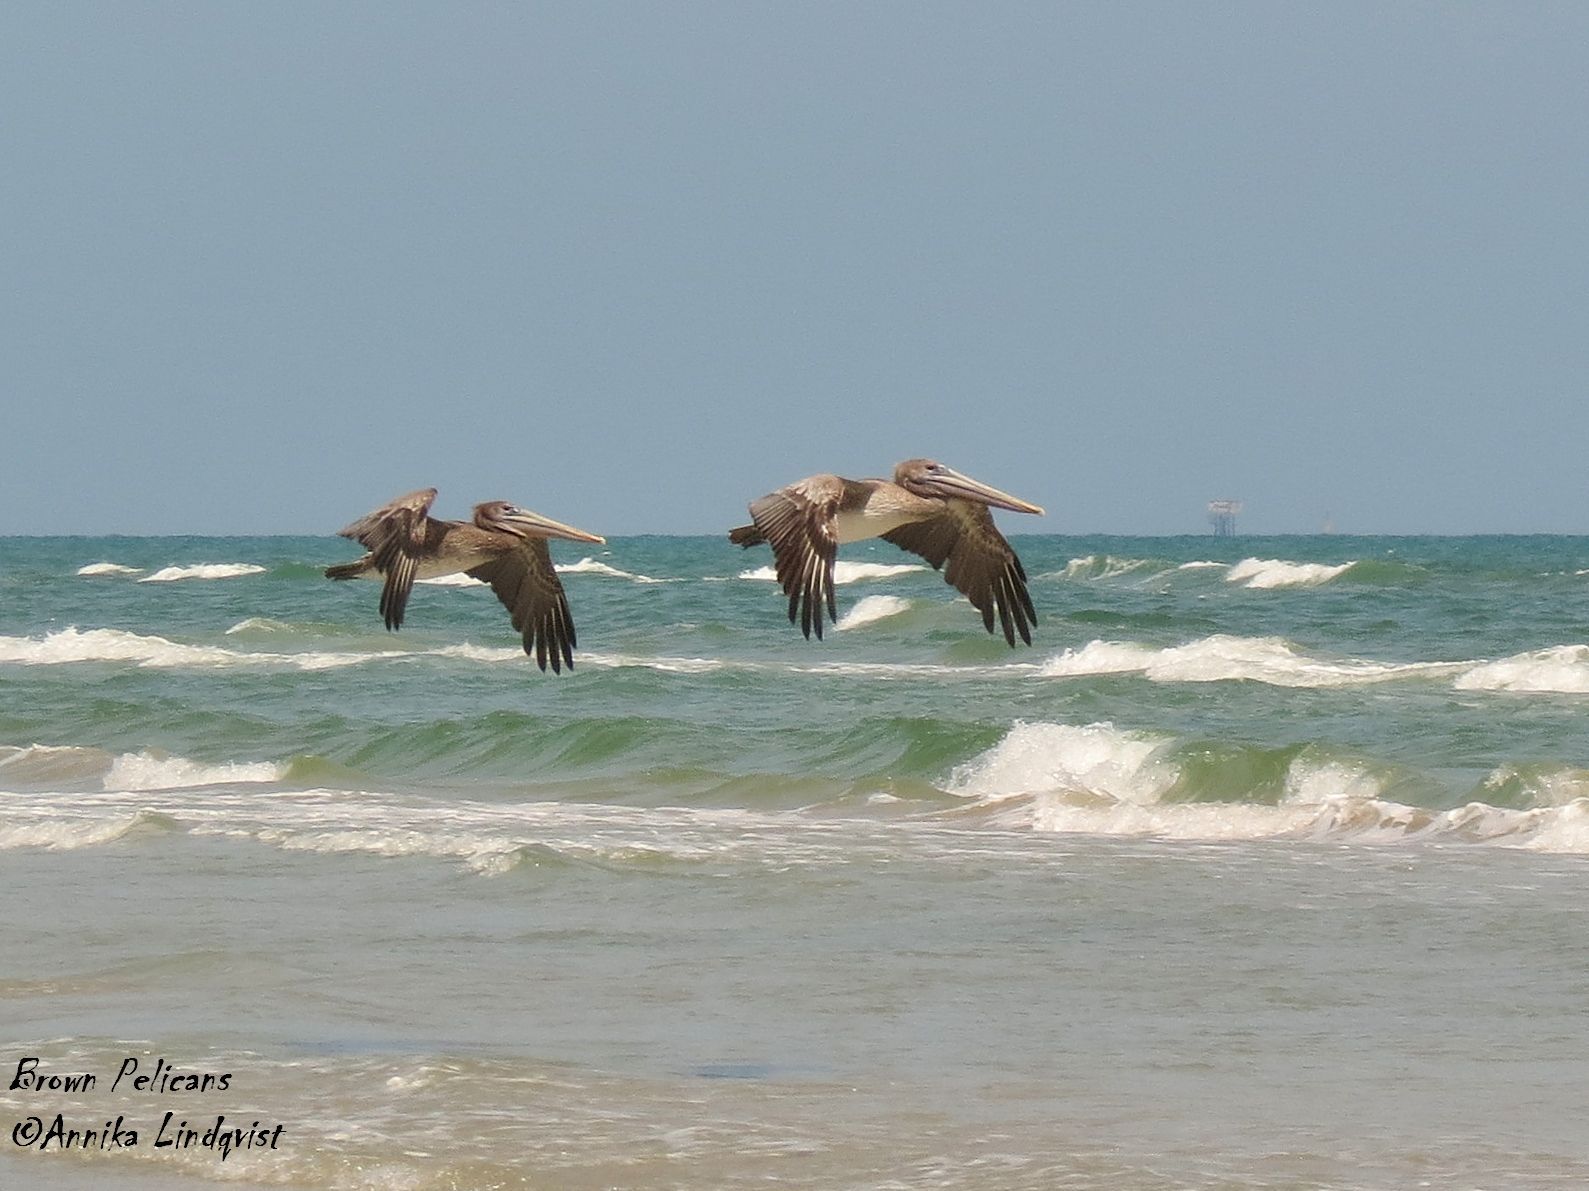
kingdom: Animalia
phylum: Chordata
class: Aves
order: Pelecaniformes
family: Pelecanidae
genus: Pelecanus
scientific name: Pelecanus occidentalis
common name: Brown pelican
